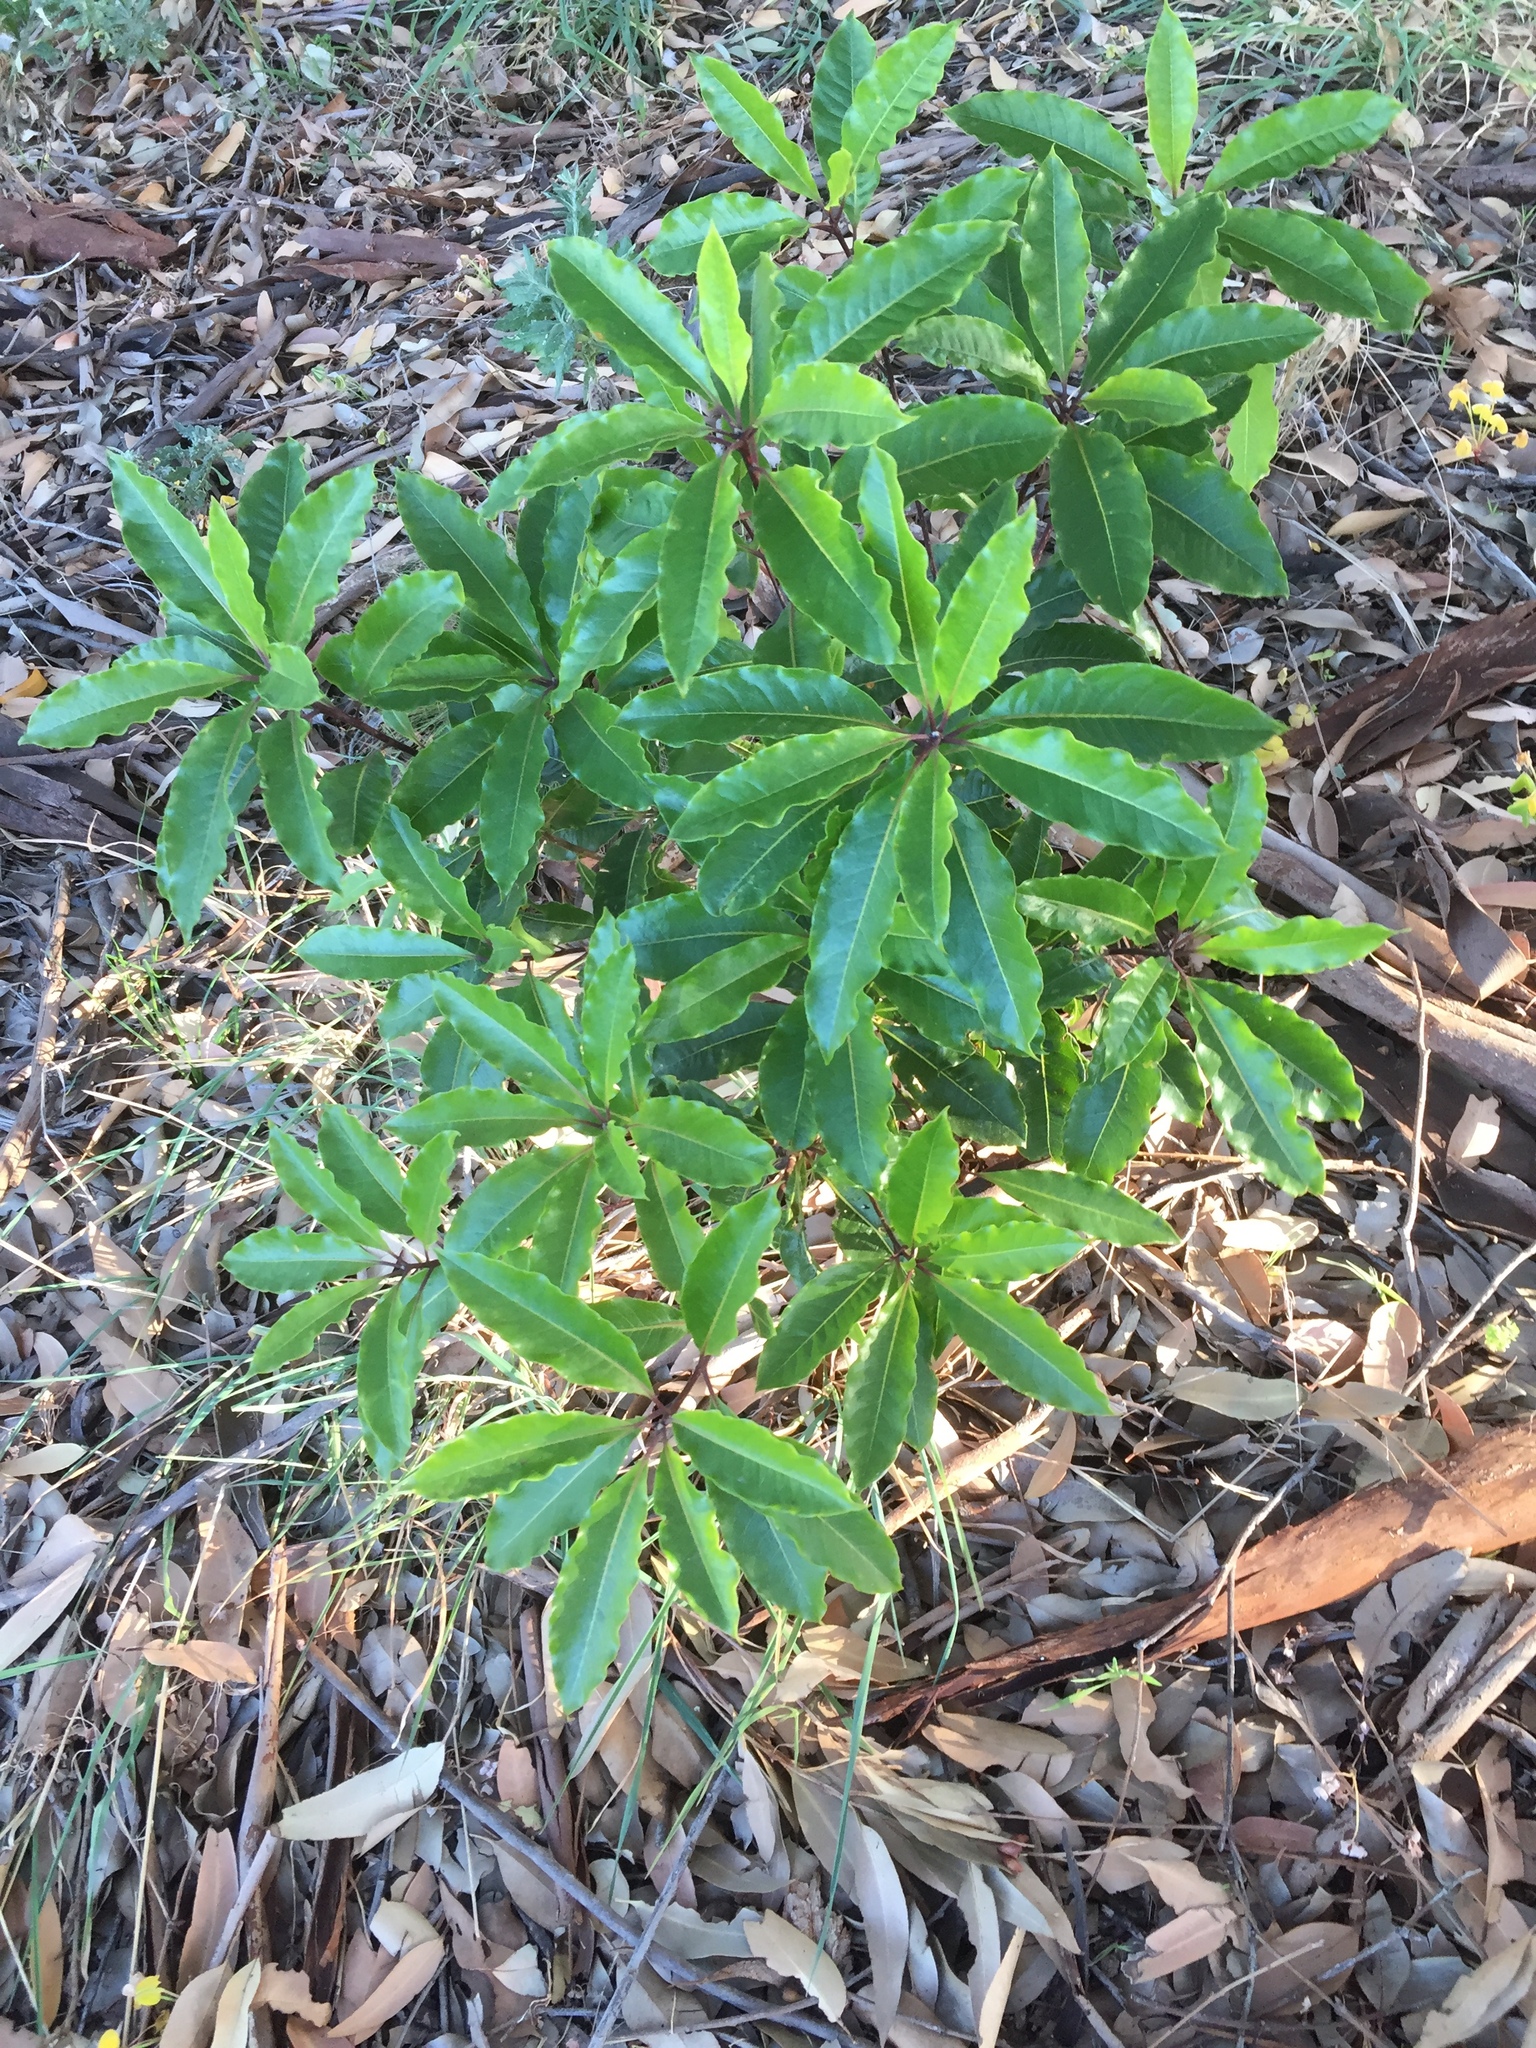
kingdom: Plantae
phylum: Tracheophyta
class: Magnoliopsida
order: Apiales
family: Pittosporaceae
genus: Pittosporum
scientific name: Pittosporum undulatum
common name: Australian cheesewood
